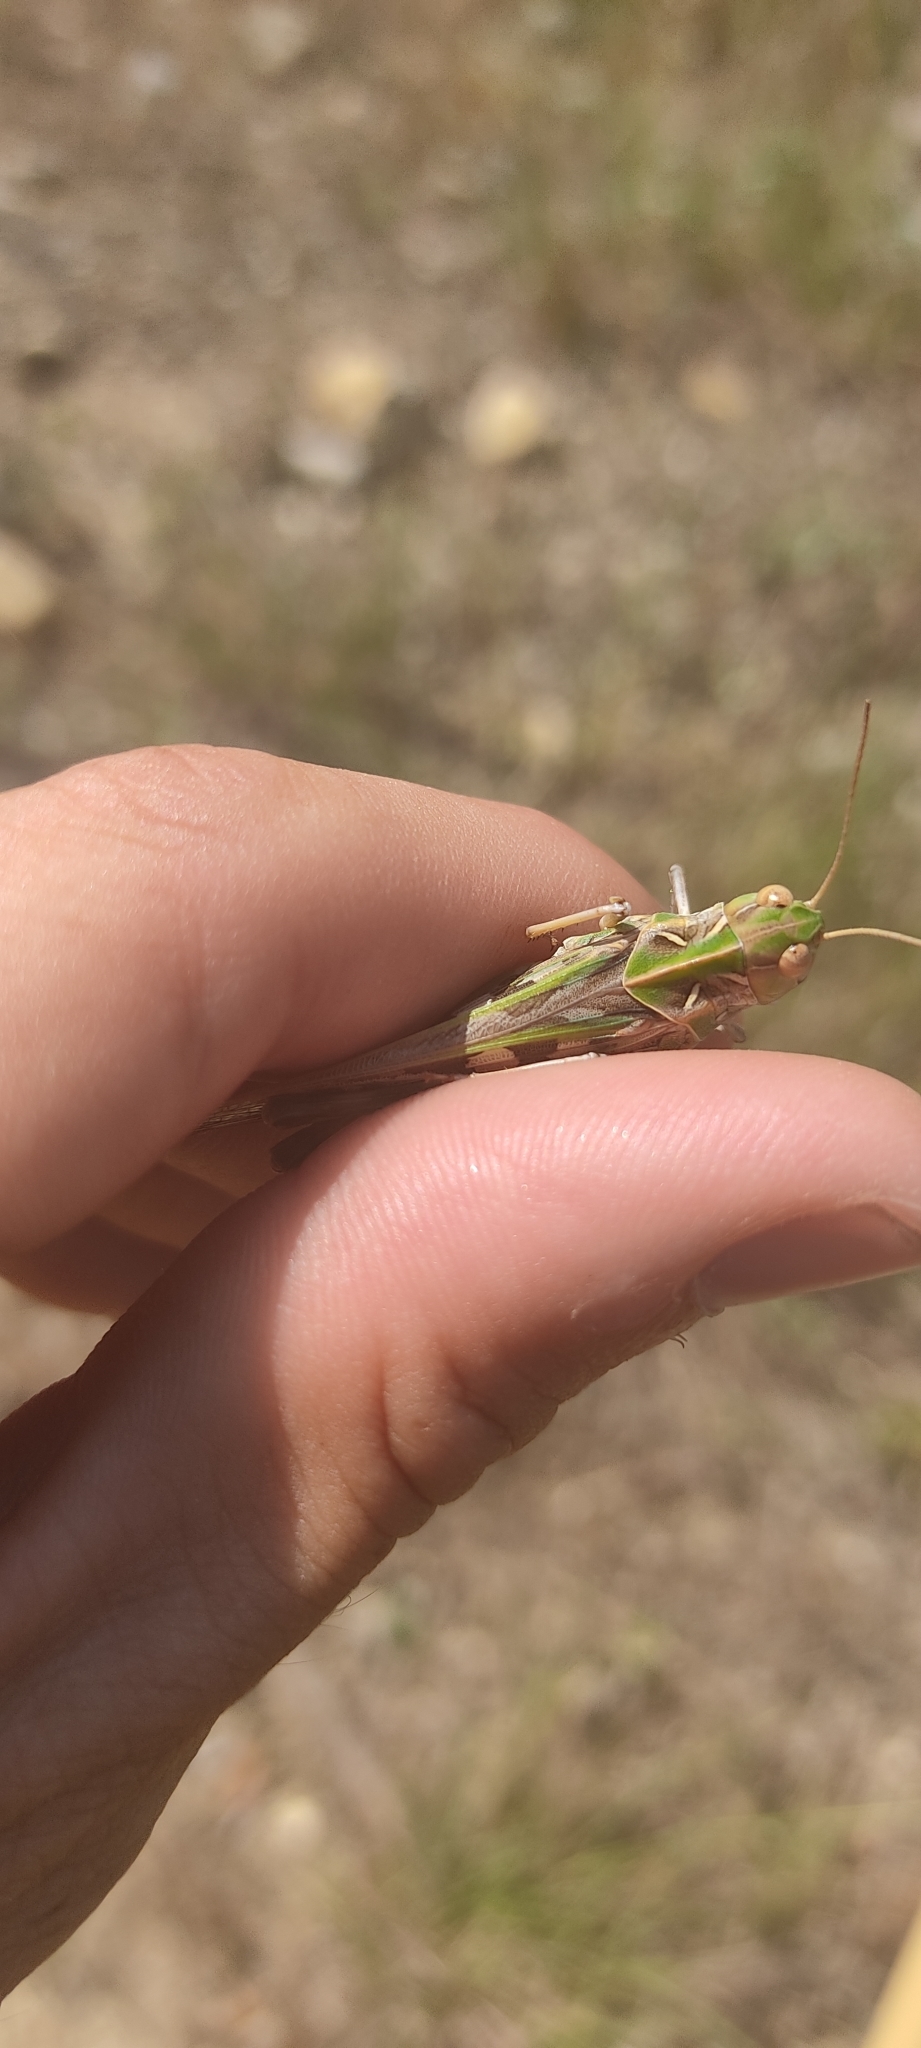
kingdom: Animalia
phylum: Arthropoda
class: Insecta
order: Orthoptera
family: Acrididae
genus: Oedaleus
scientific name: Oedaleus decorus
